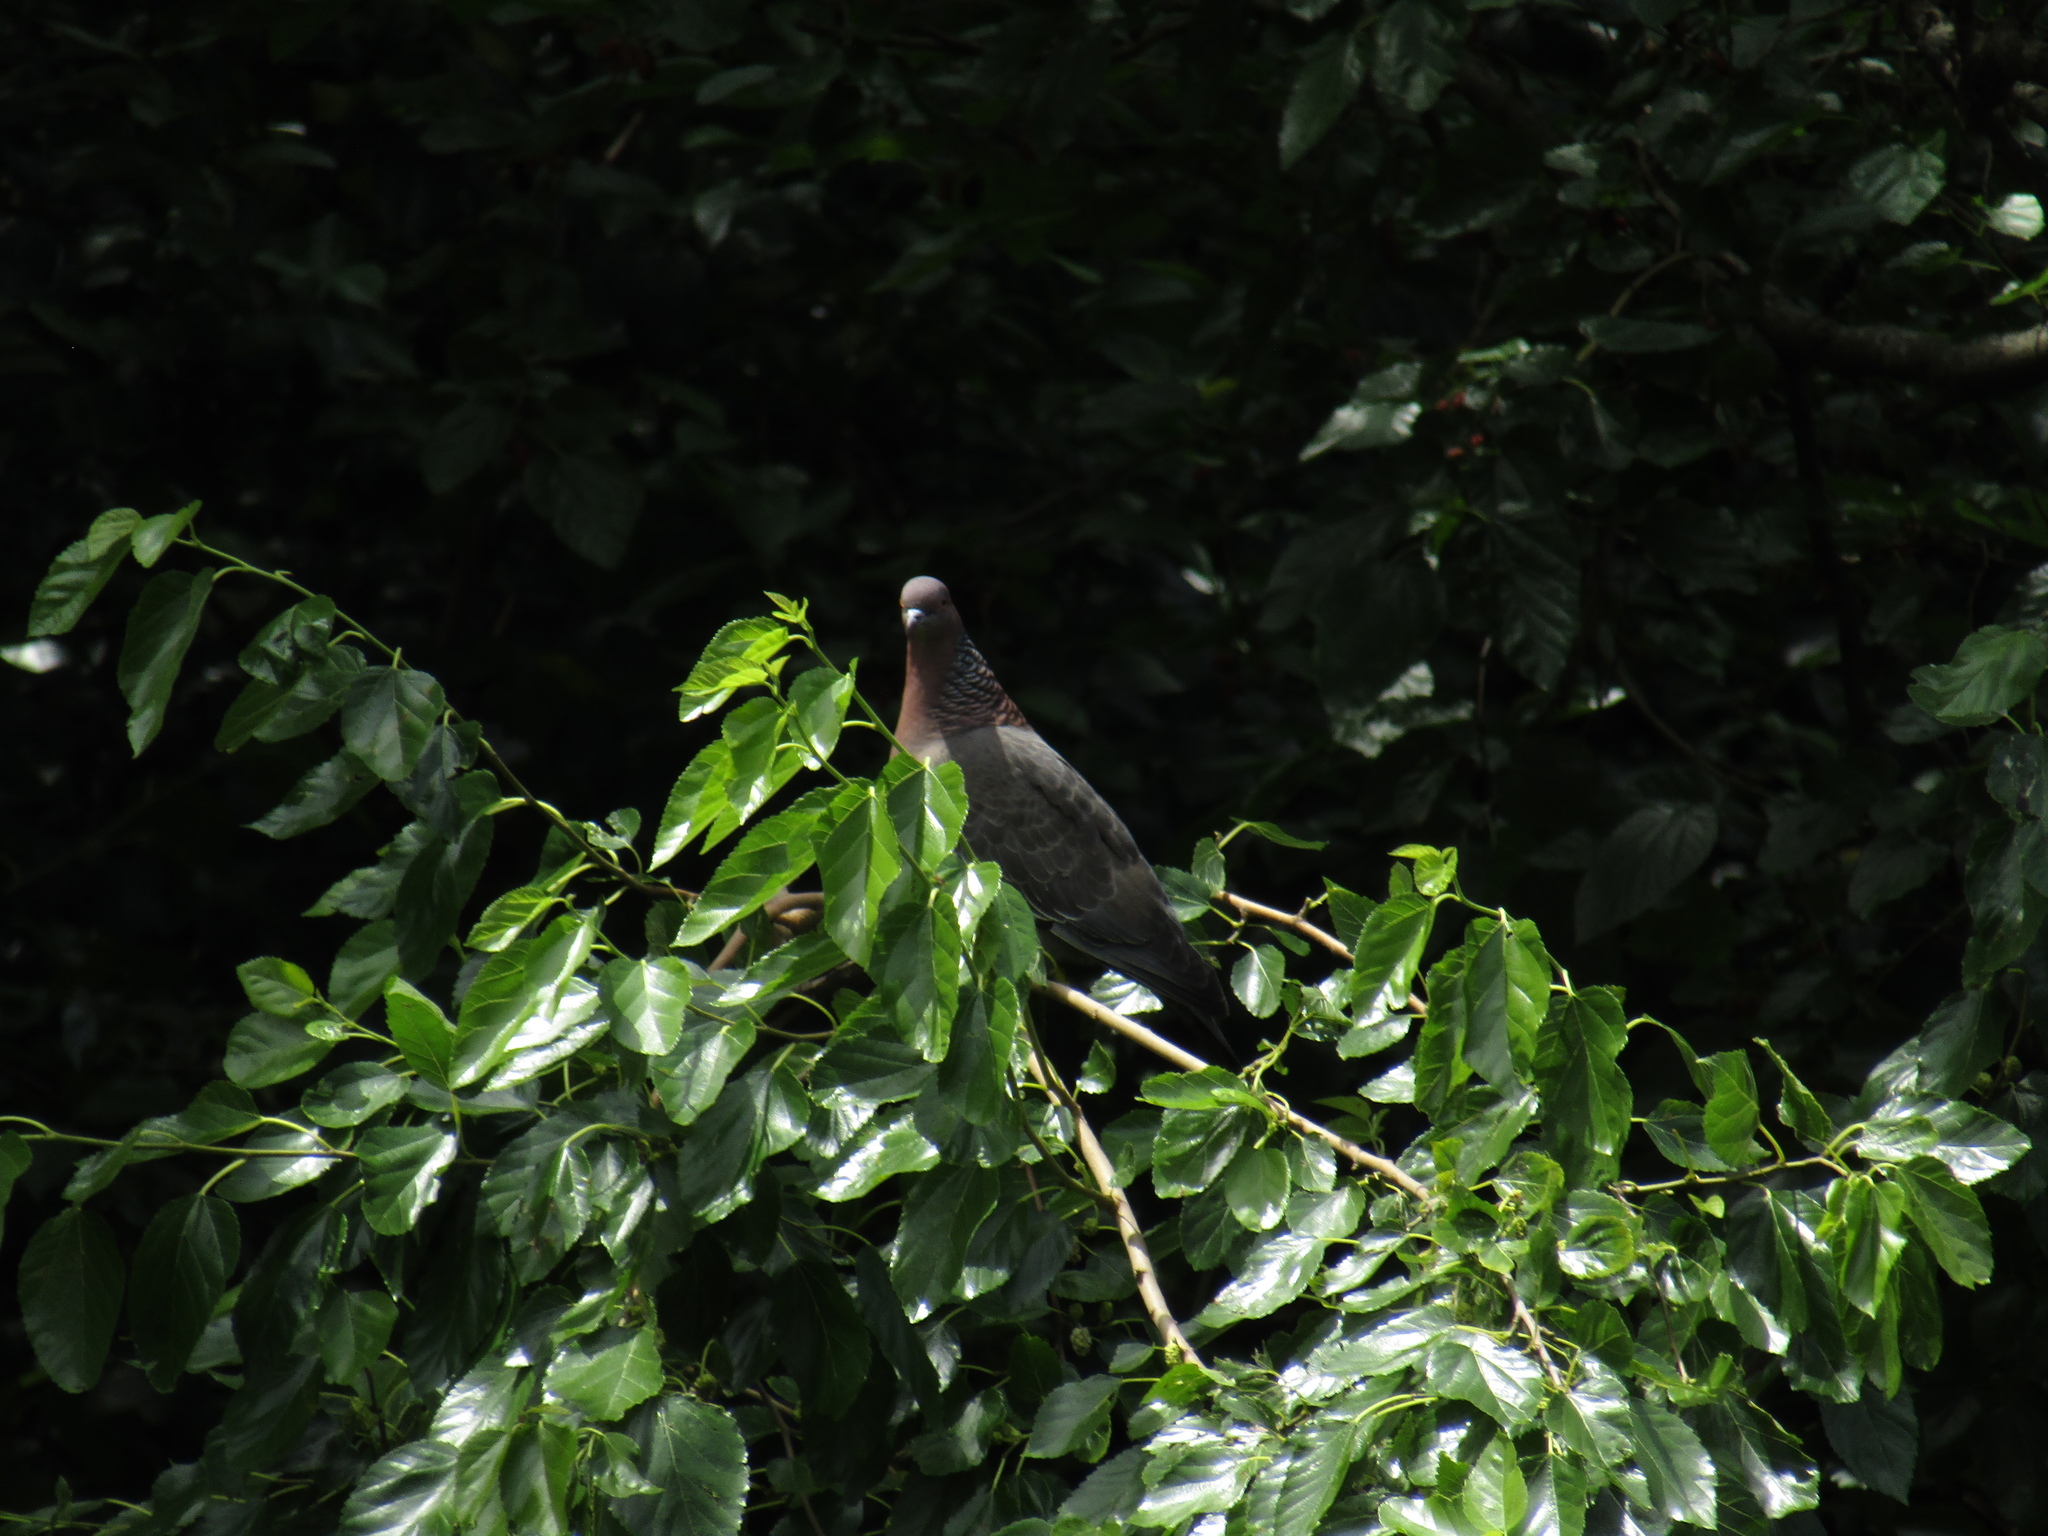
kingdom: Animalia
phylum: Chordata
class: Aves
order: Columbiformes
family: Columbidae
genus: Patagioenas
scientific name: Patagioenas picazuro
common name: Picazuro pigeon
